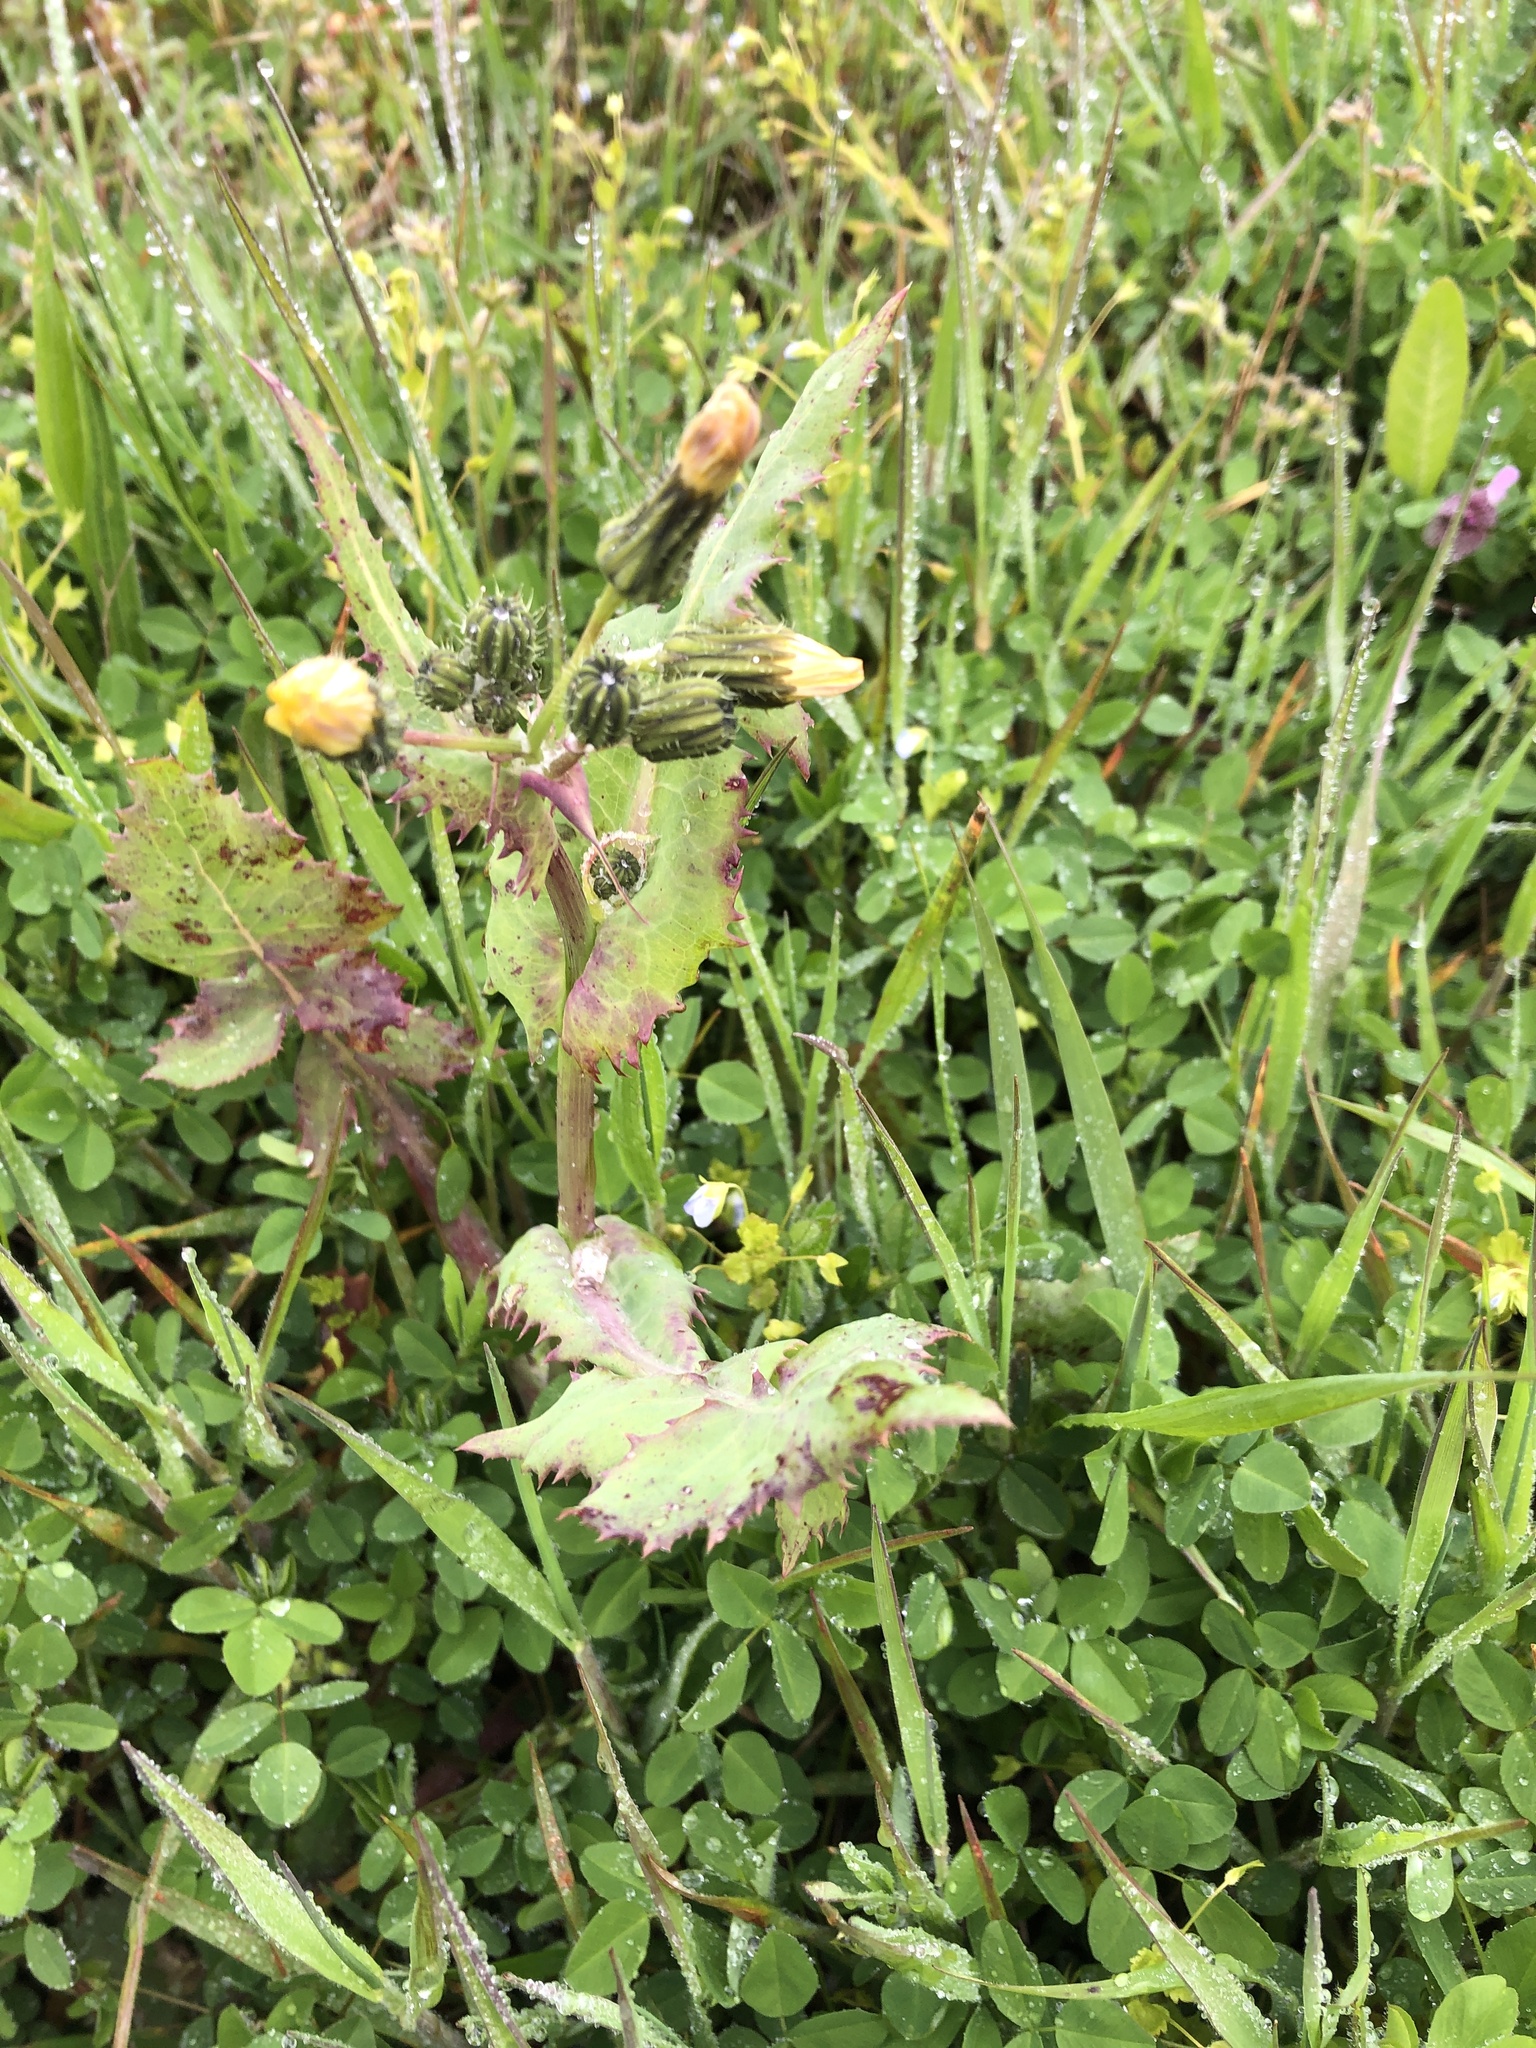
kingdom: Plantae
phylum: Tracheophyta
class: Magnoliopsida
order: Asterales
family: Asteraceae
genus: Sonchus
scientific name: Sonchus oleraceus
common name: Common sowthistle
